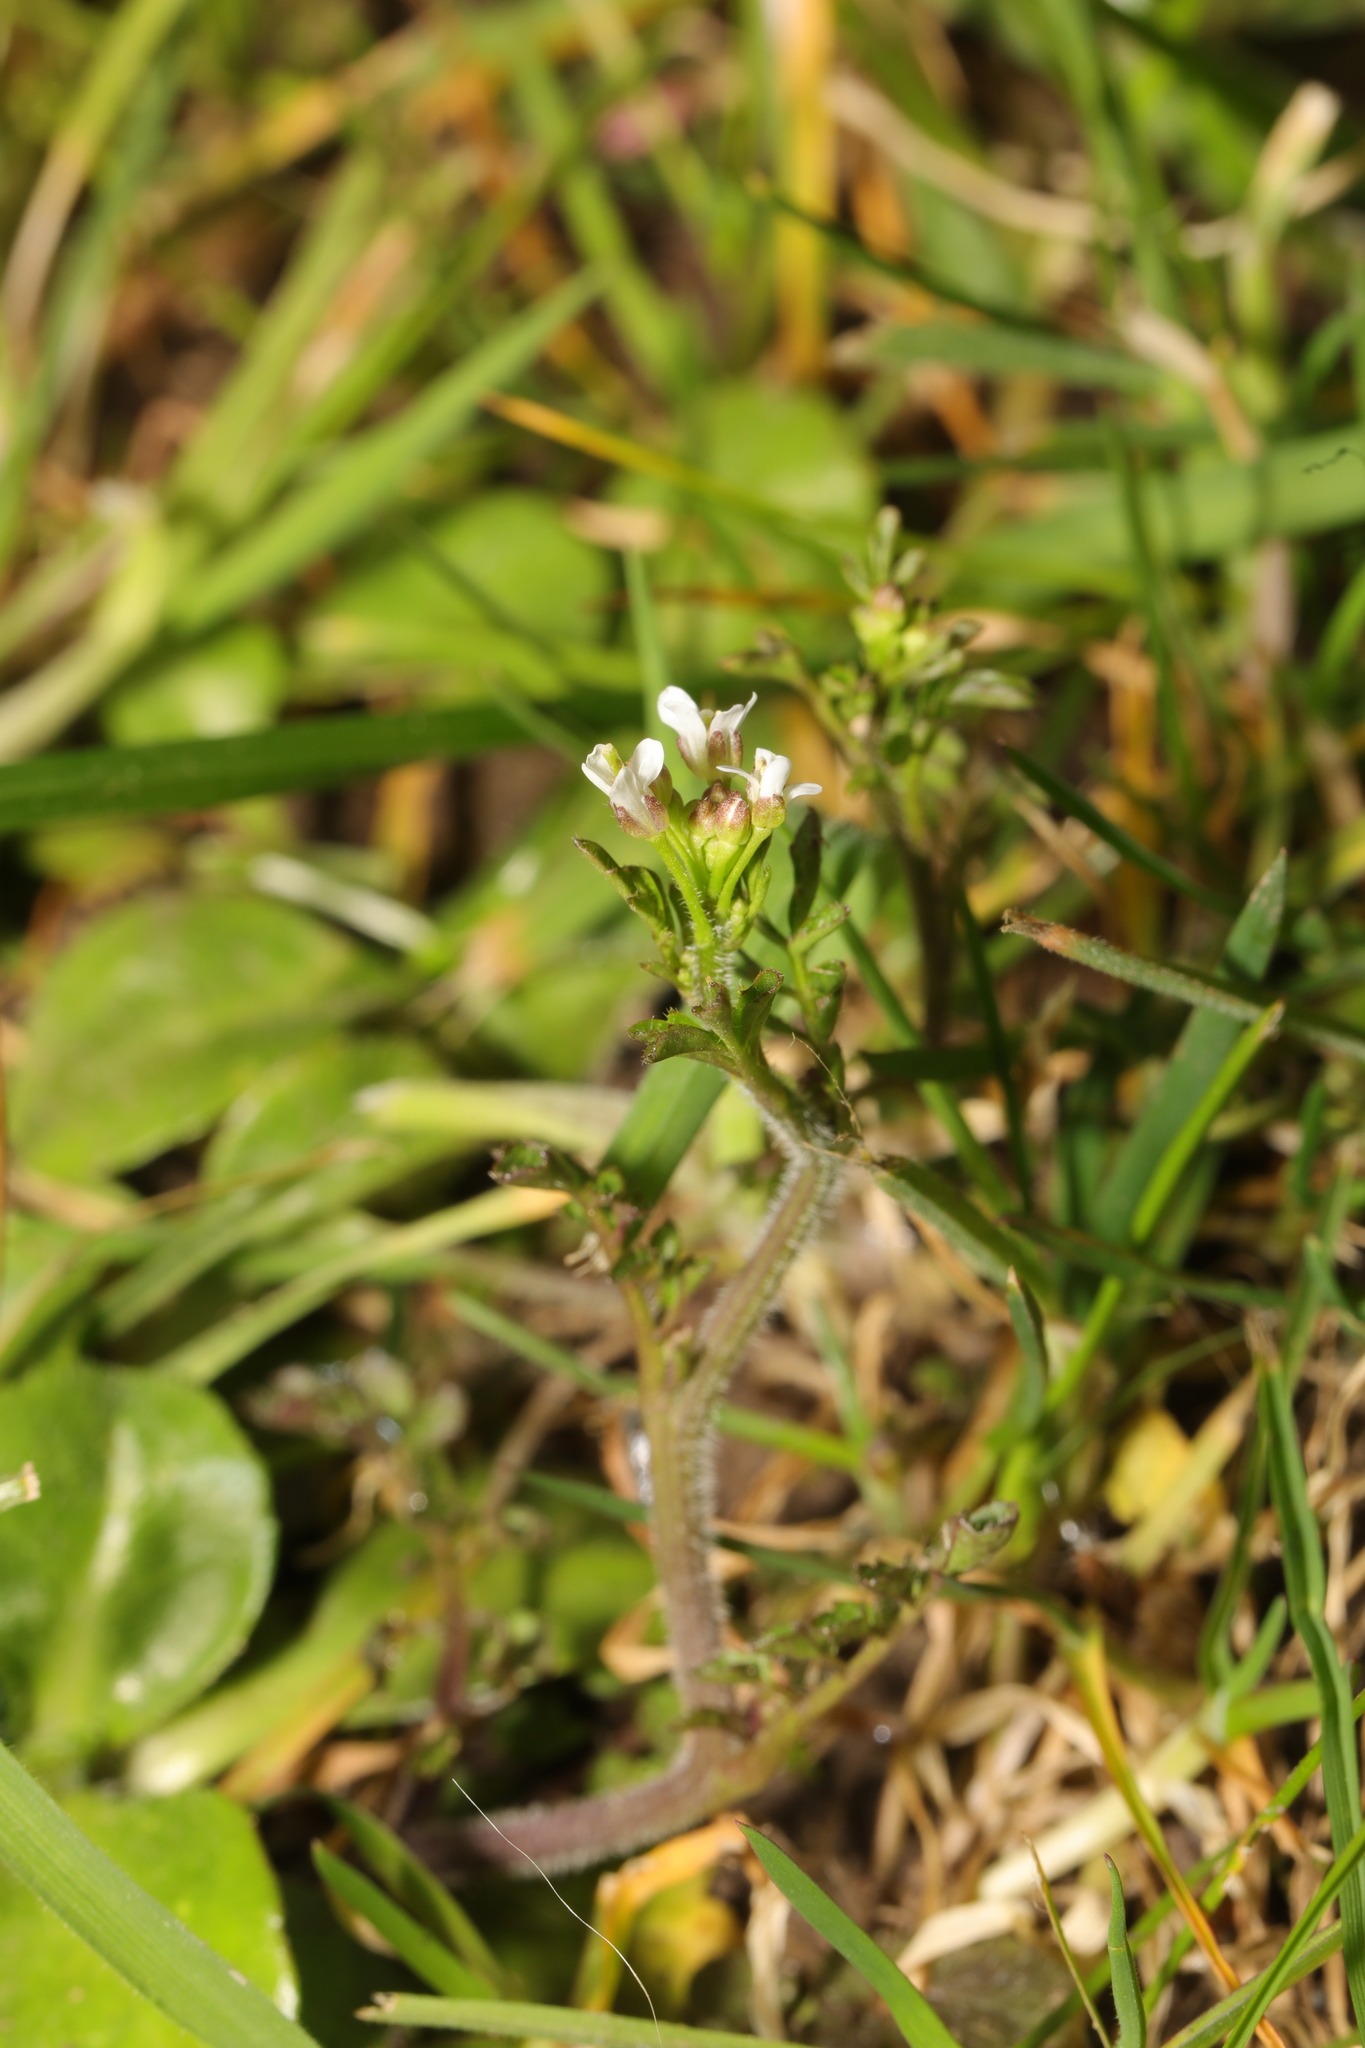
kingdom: Plantae
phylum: Tracheophyta
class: Magnoliopsida
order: Brassicales
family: Brassicaceae
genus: Cardamine
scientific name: Cardamine flexuosa
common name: Woodland bittercress
